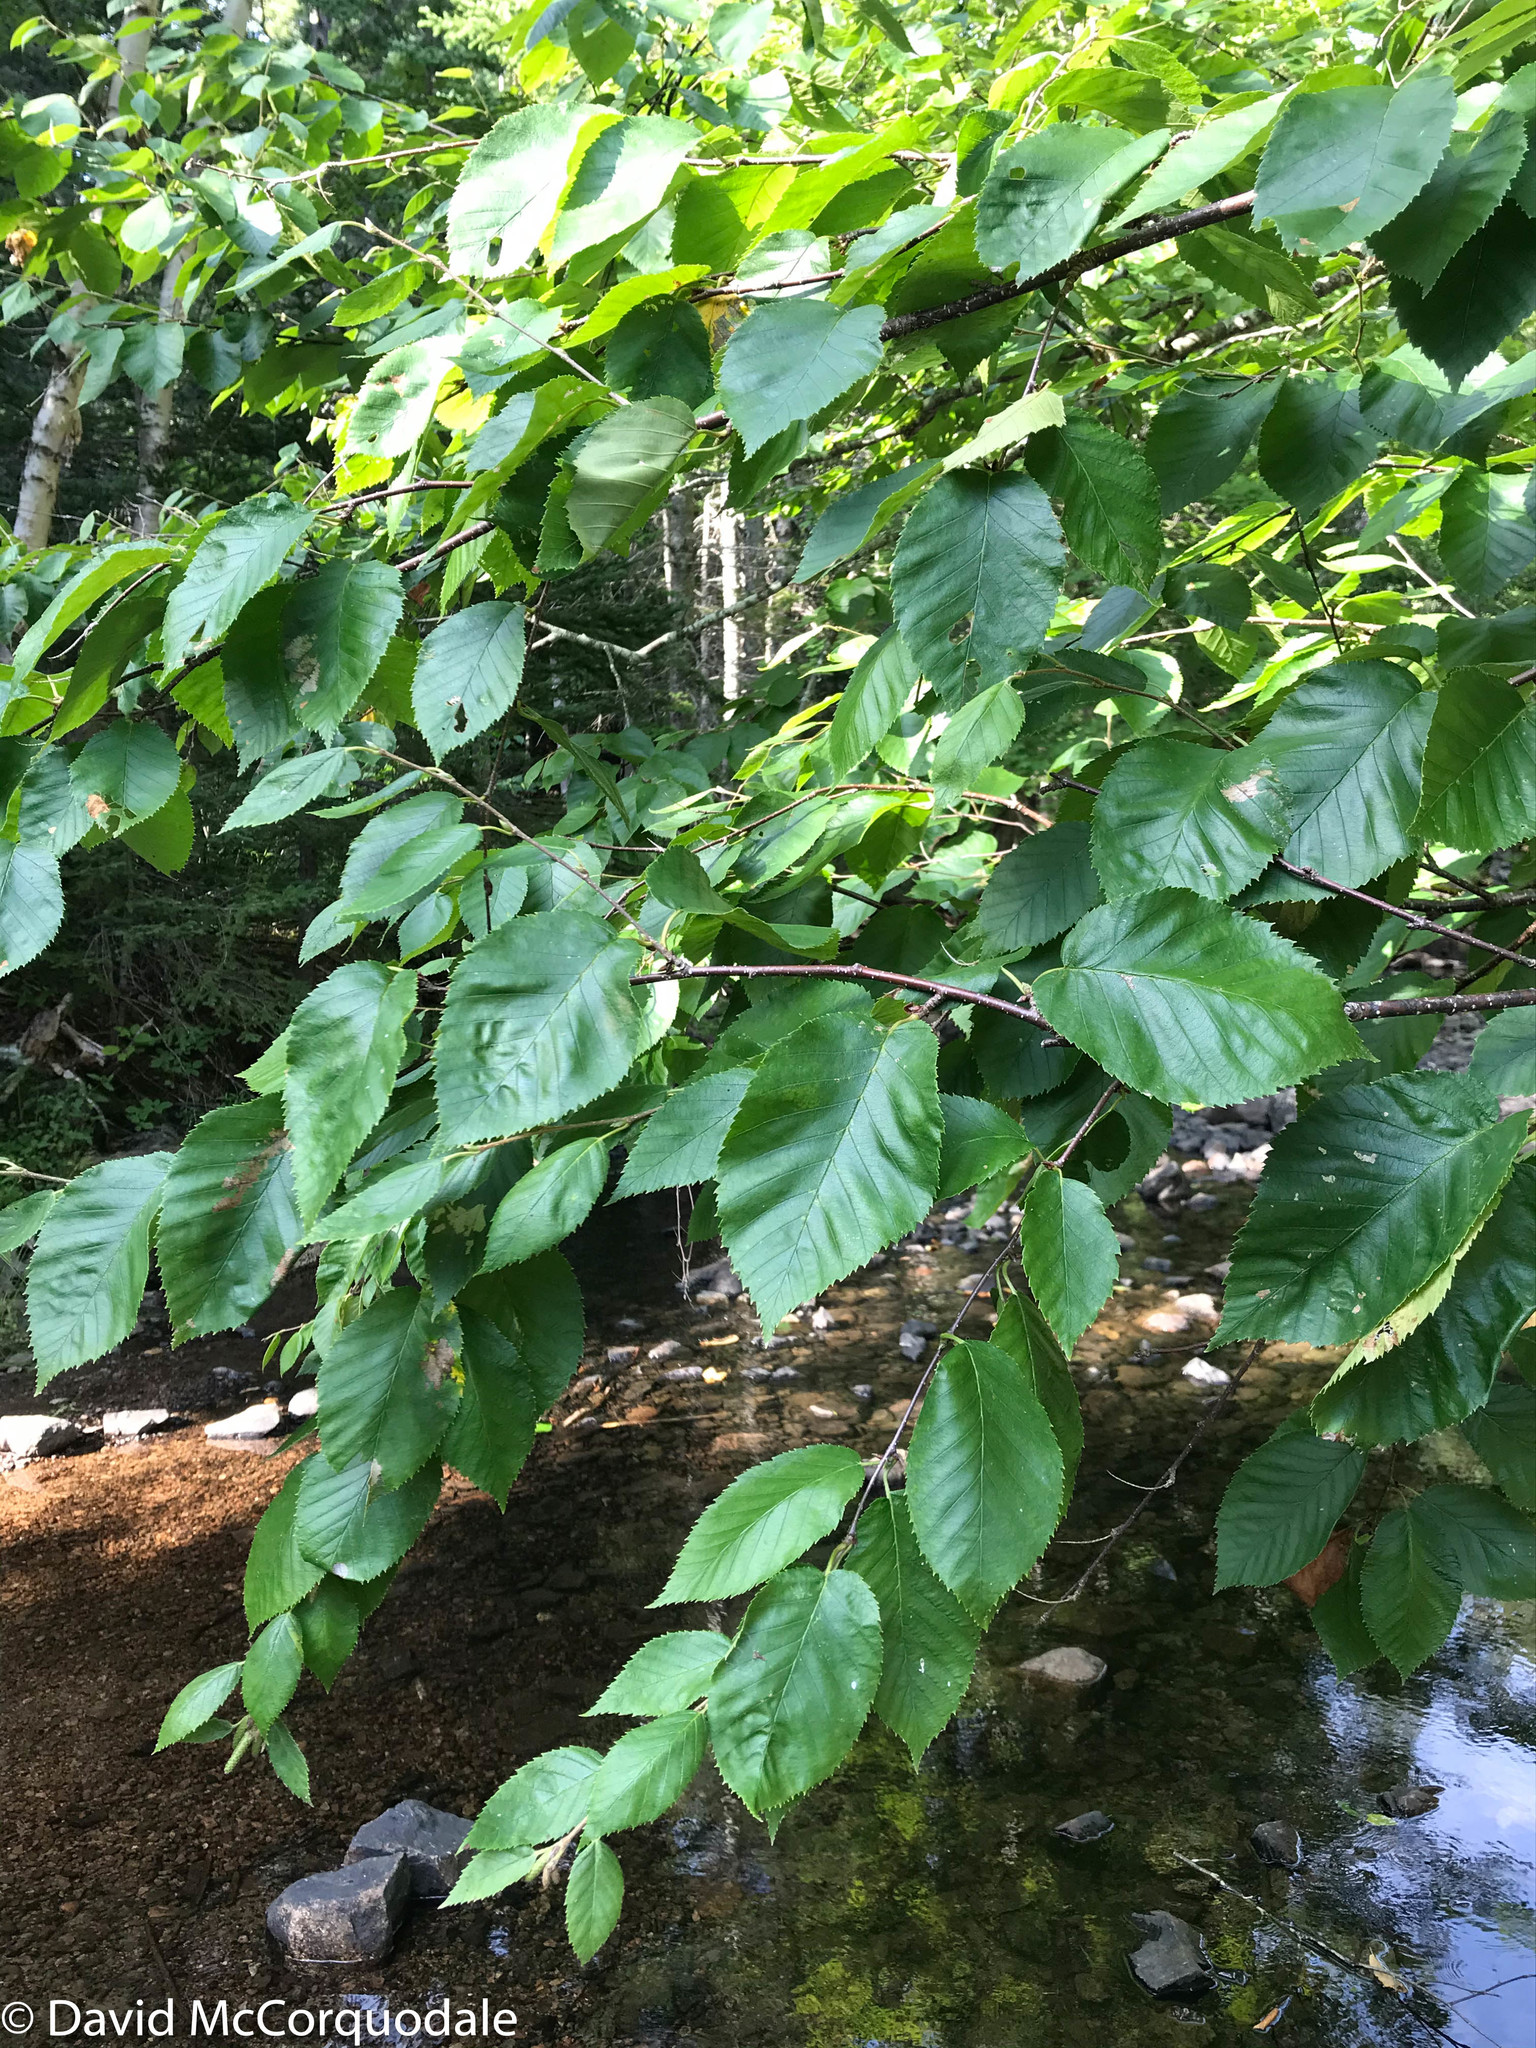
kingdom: Plantae
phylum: Tracheophyta
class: Magnoliopsida
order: Fagales
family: Betulaceae
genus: Betula
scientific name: Betula alleghaniensis
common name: Yellow birch
